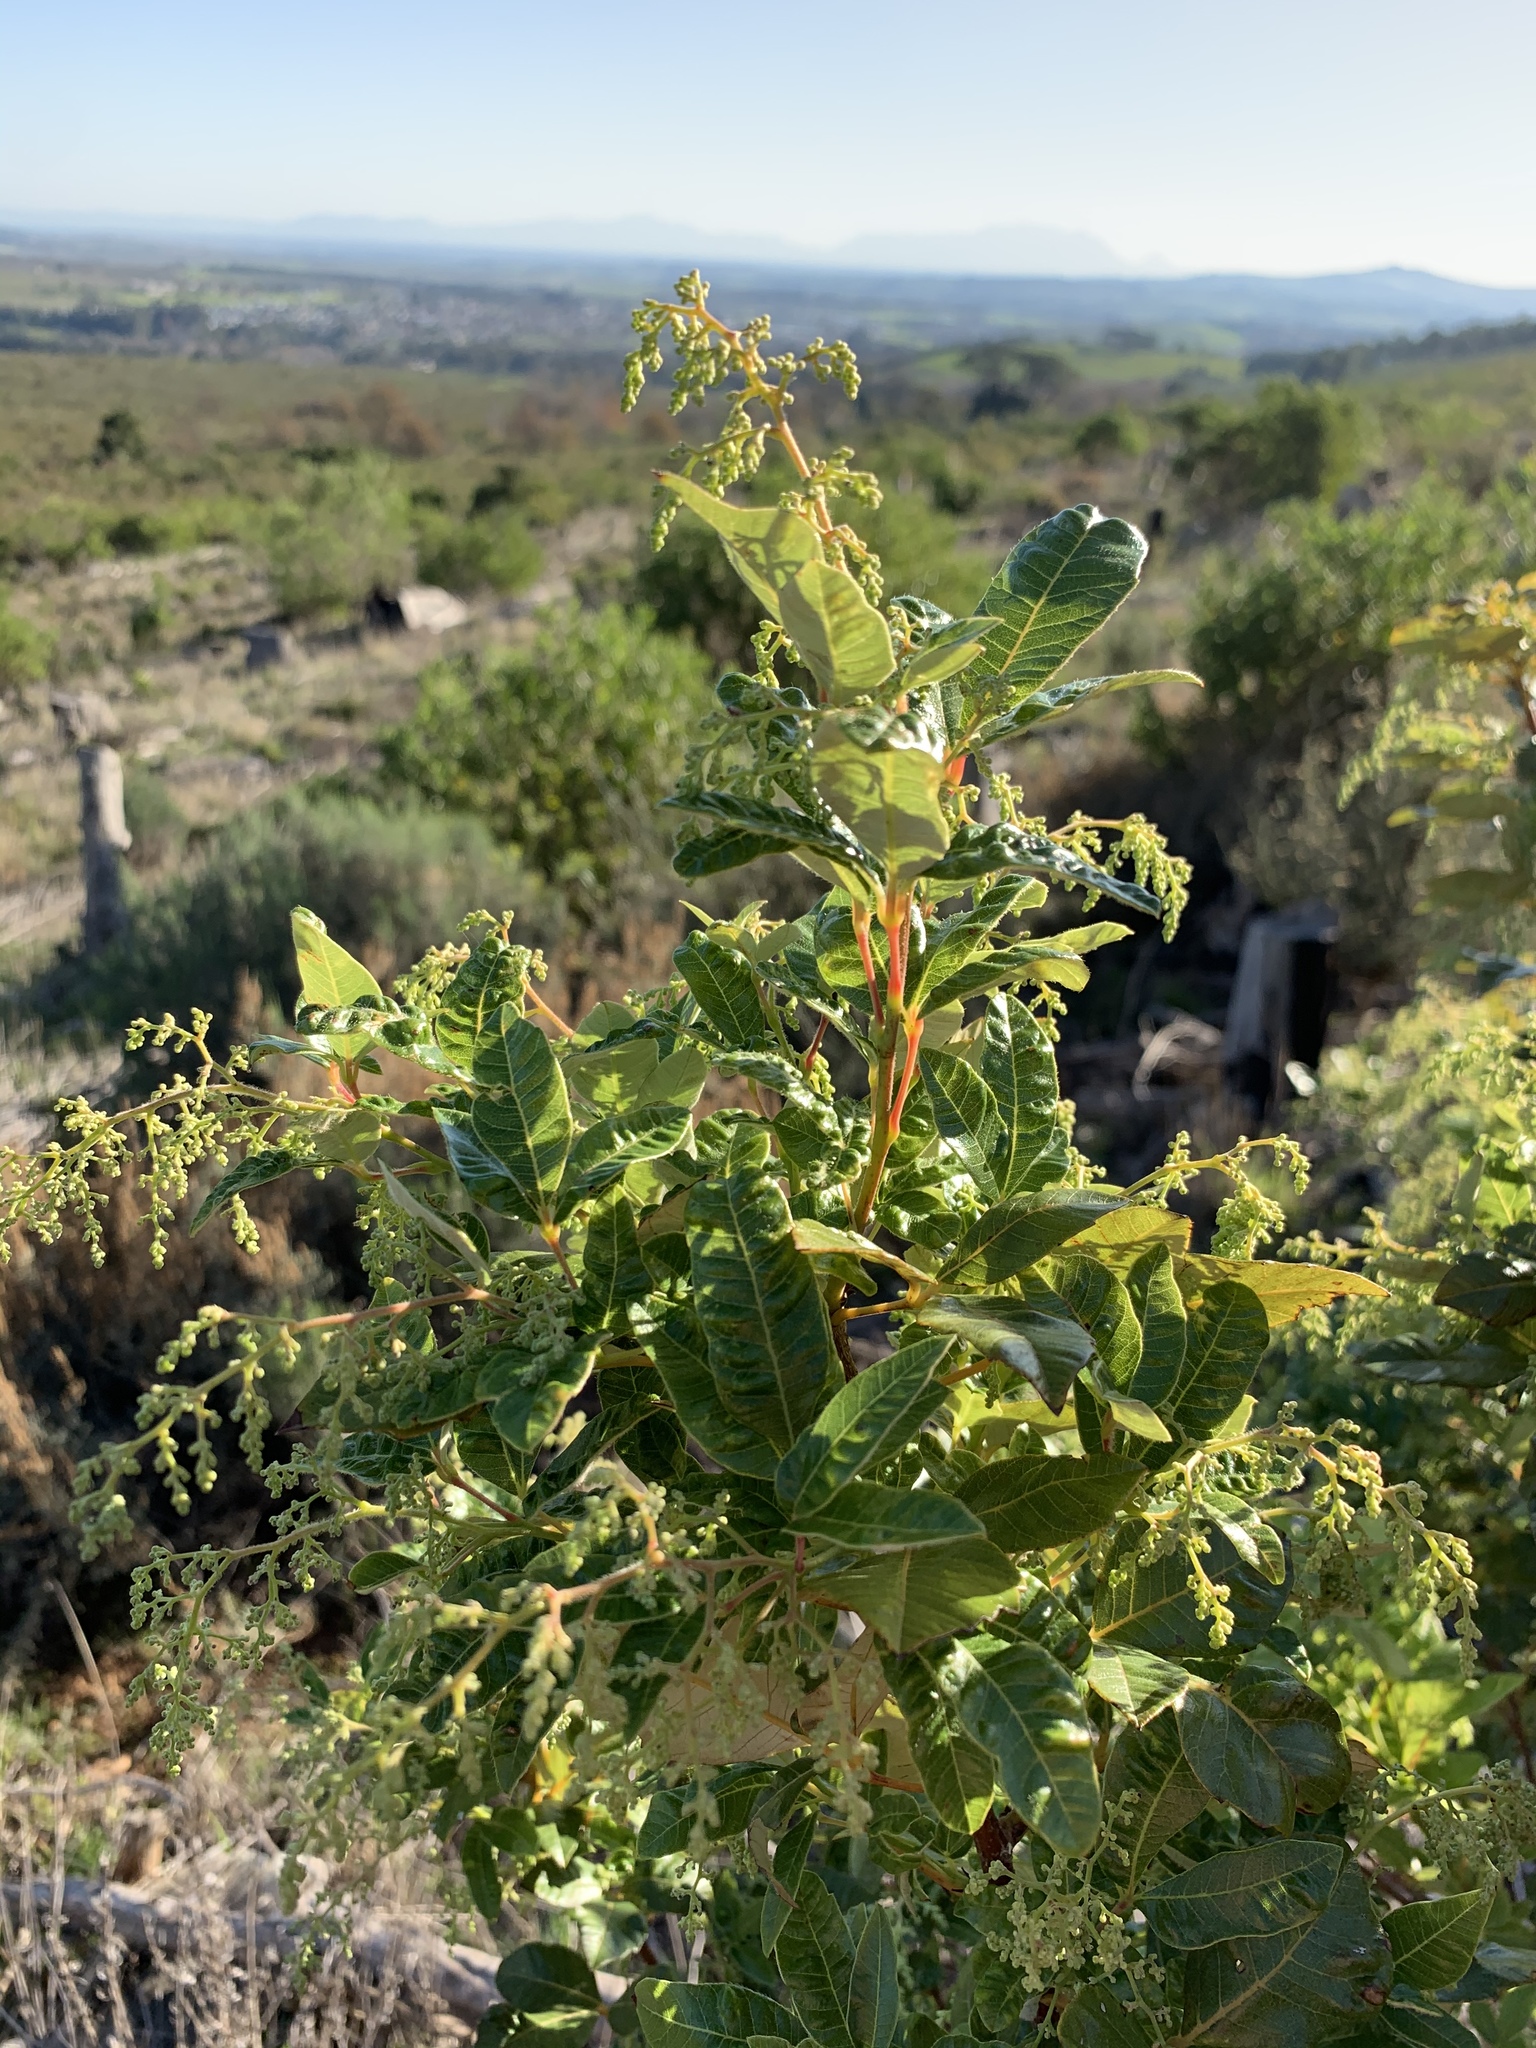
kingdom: Plantae
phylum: Tracheophyta
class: Magnoliopsida
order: Sapindales
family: Anacardiaceae
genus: Searsia
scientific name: Searsia tomentosa
